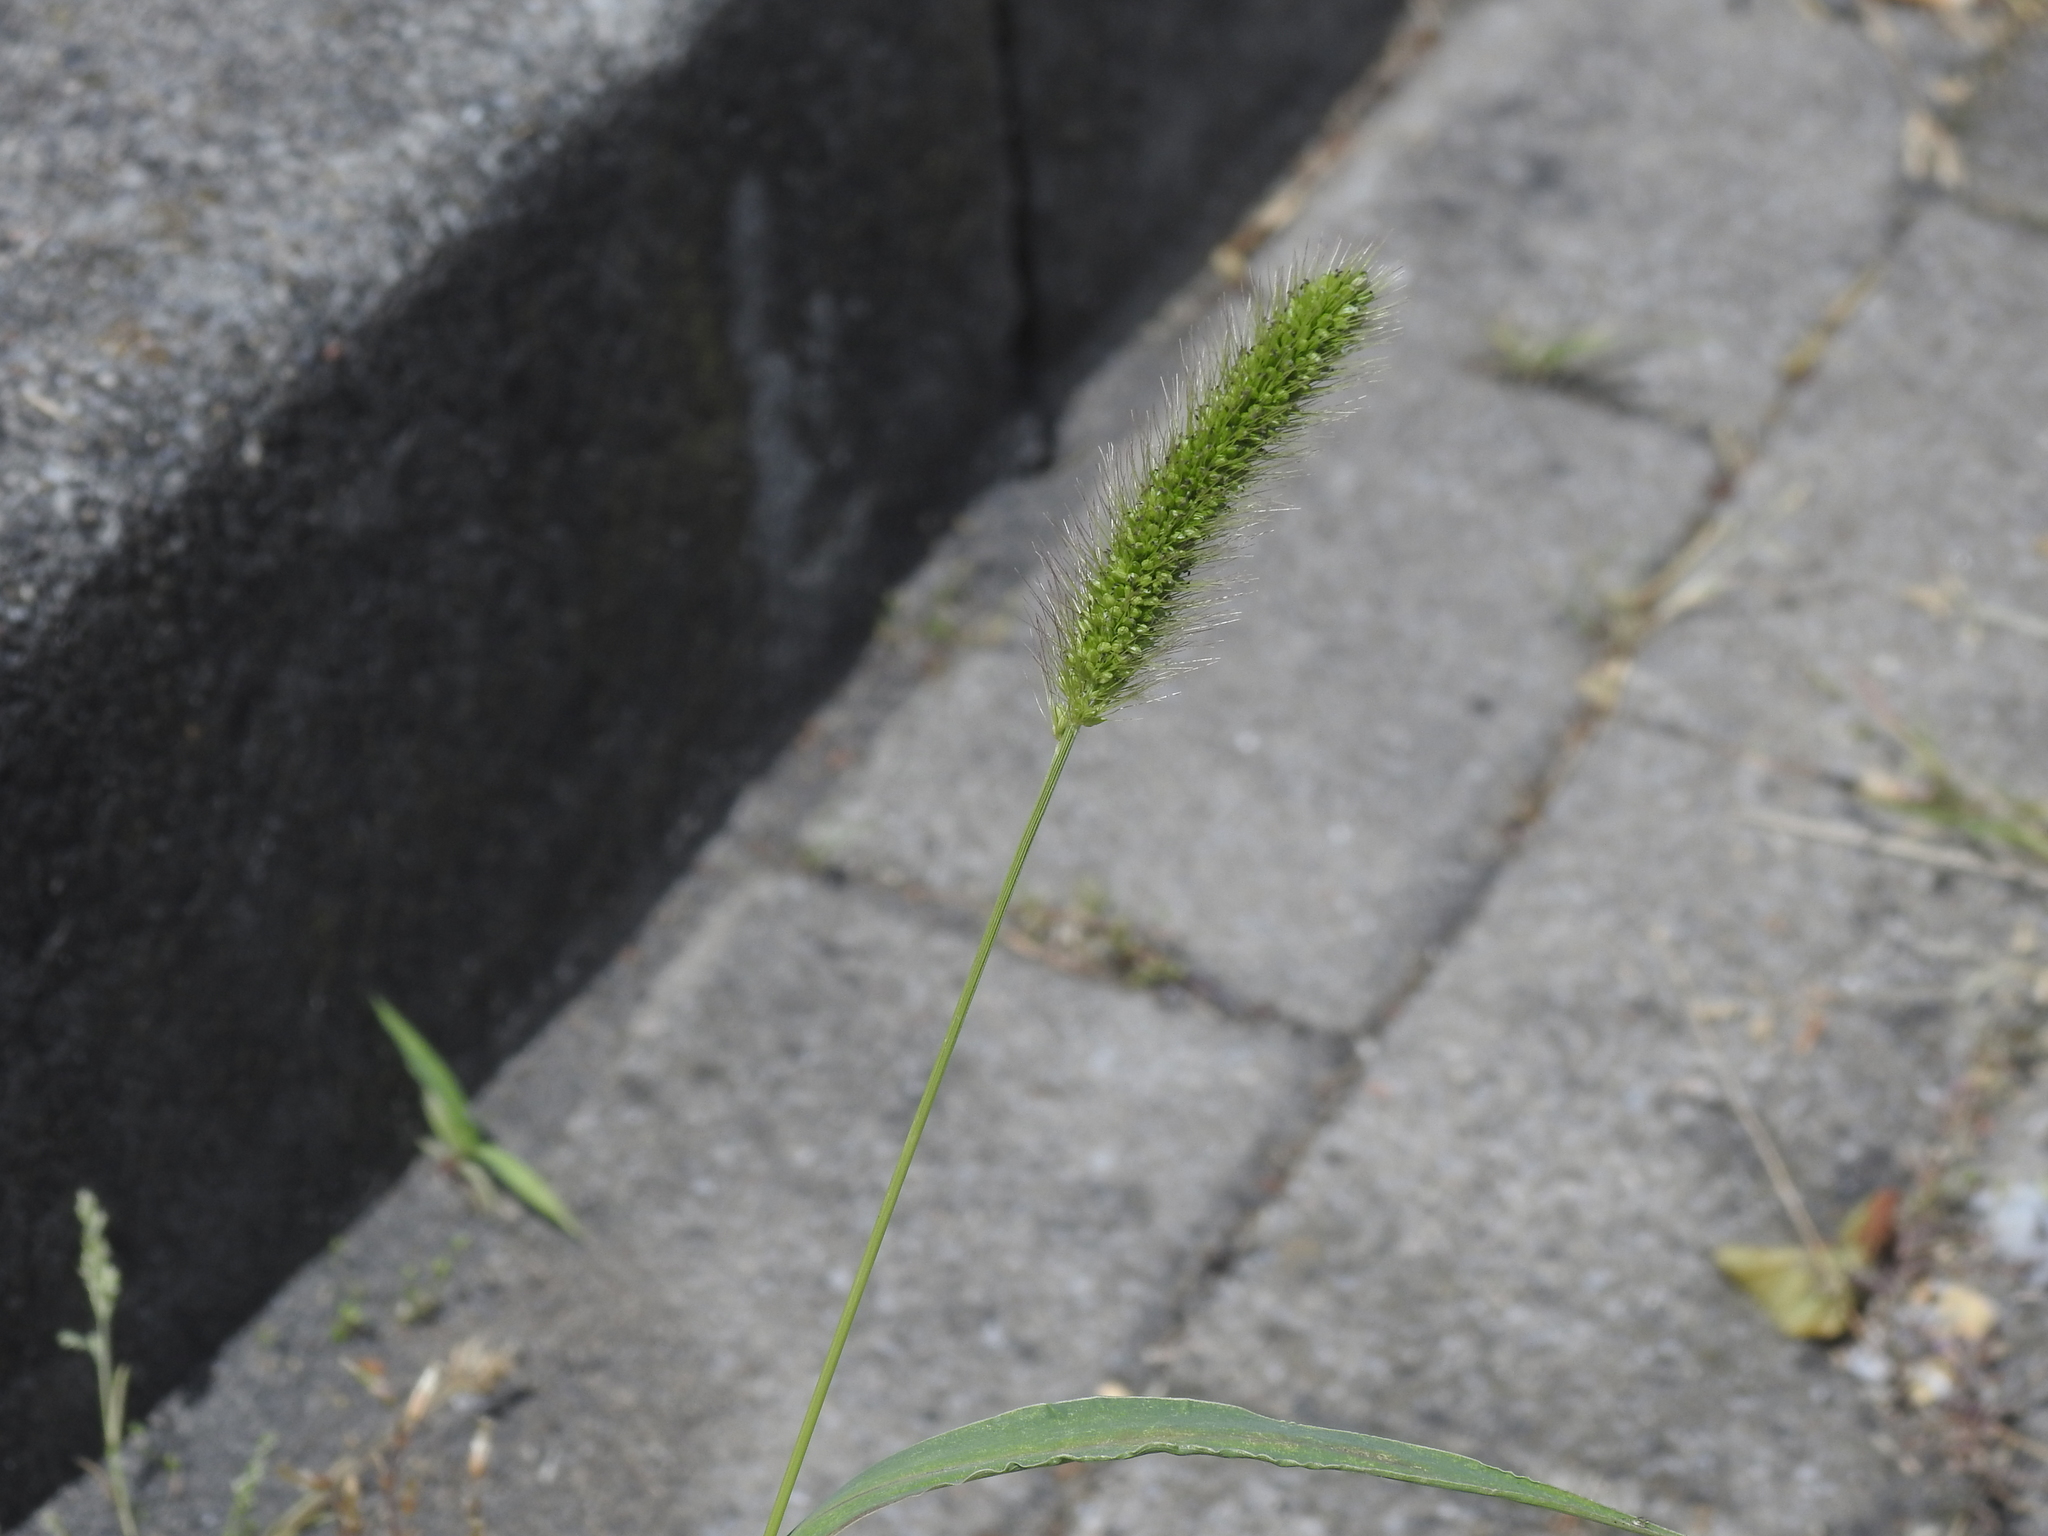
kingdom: Plantae
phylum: Tracheophyta
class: Liliopsida
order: Poales
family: Poaceae
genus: Setaria
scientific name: Setaria viridis
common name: Green bristlegrass
